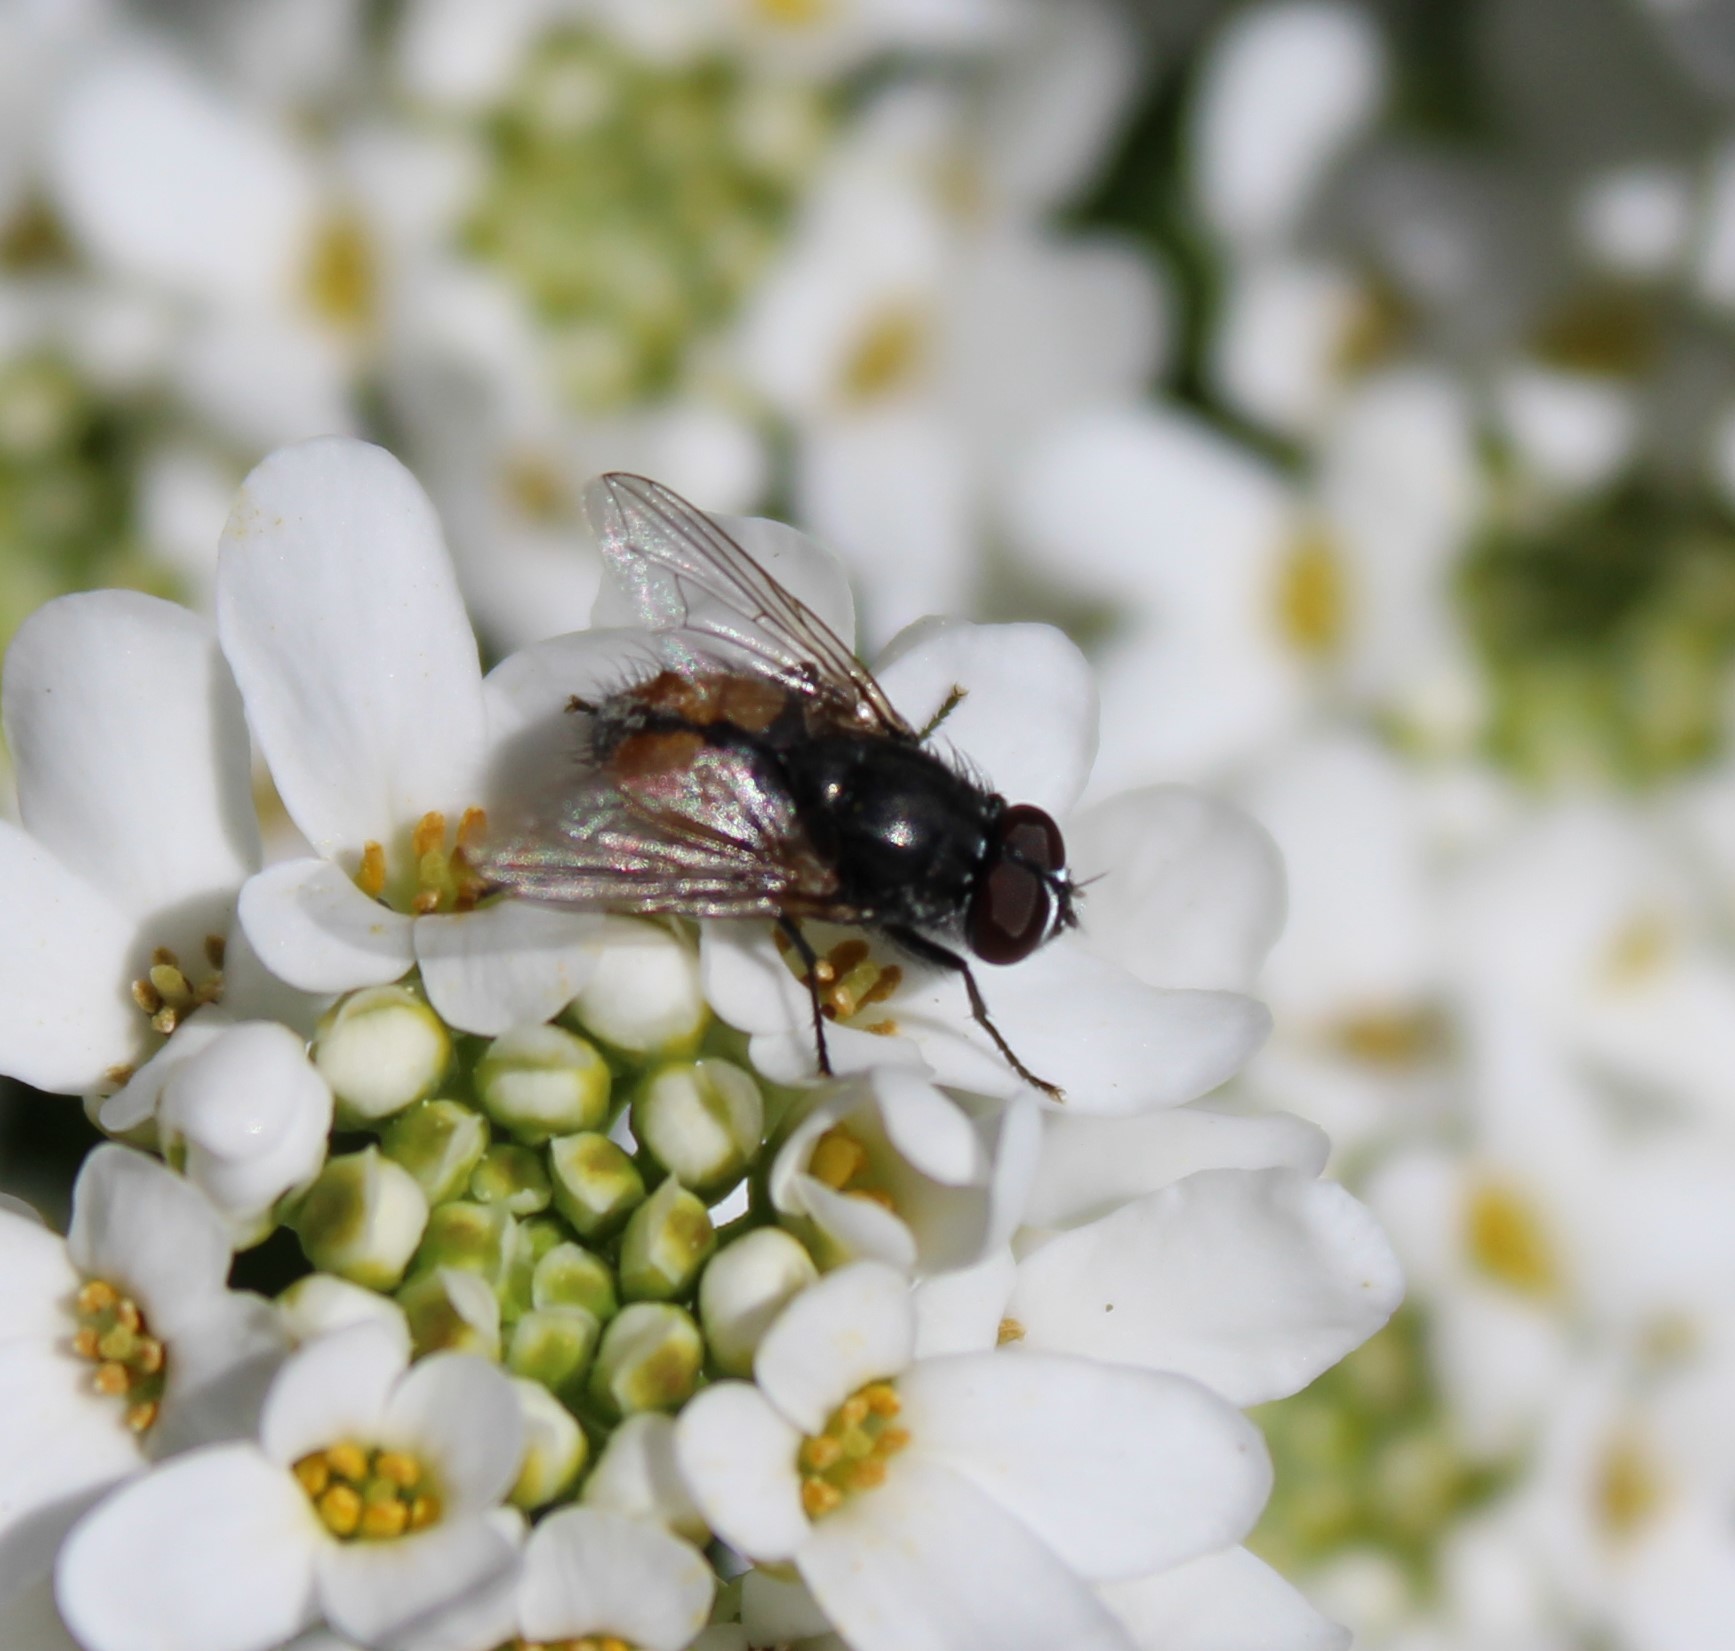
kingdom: Animalia
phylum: Arthropoda
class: Insecta
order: Diptera
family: Muscidae
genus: Musca
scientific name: Musca autumnalis
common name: Face fly
